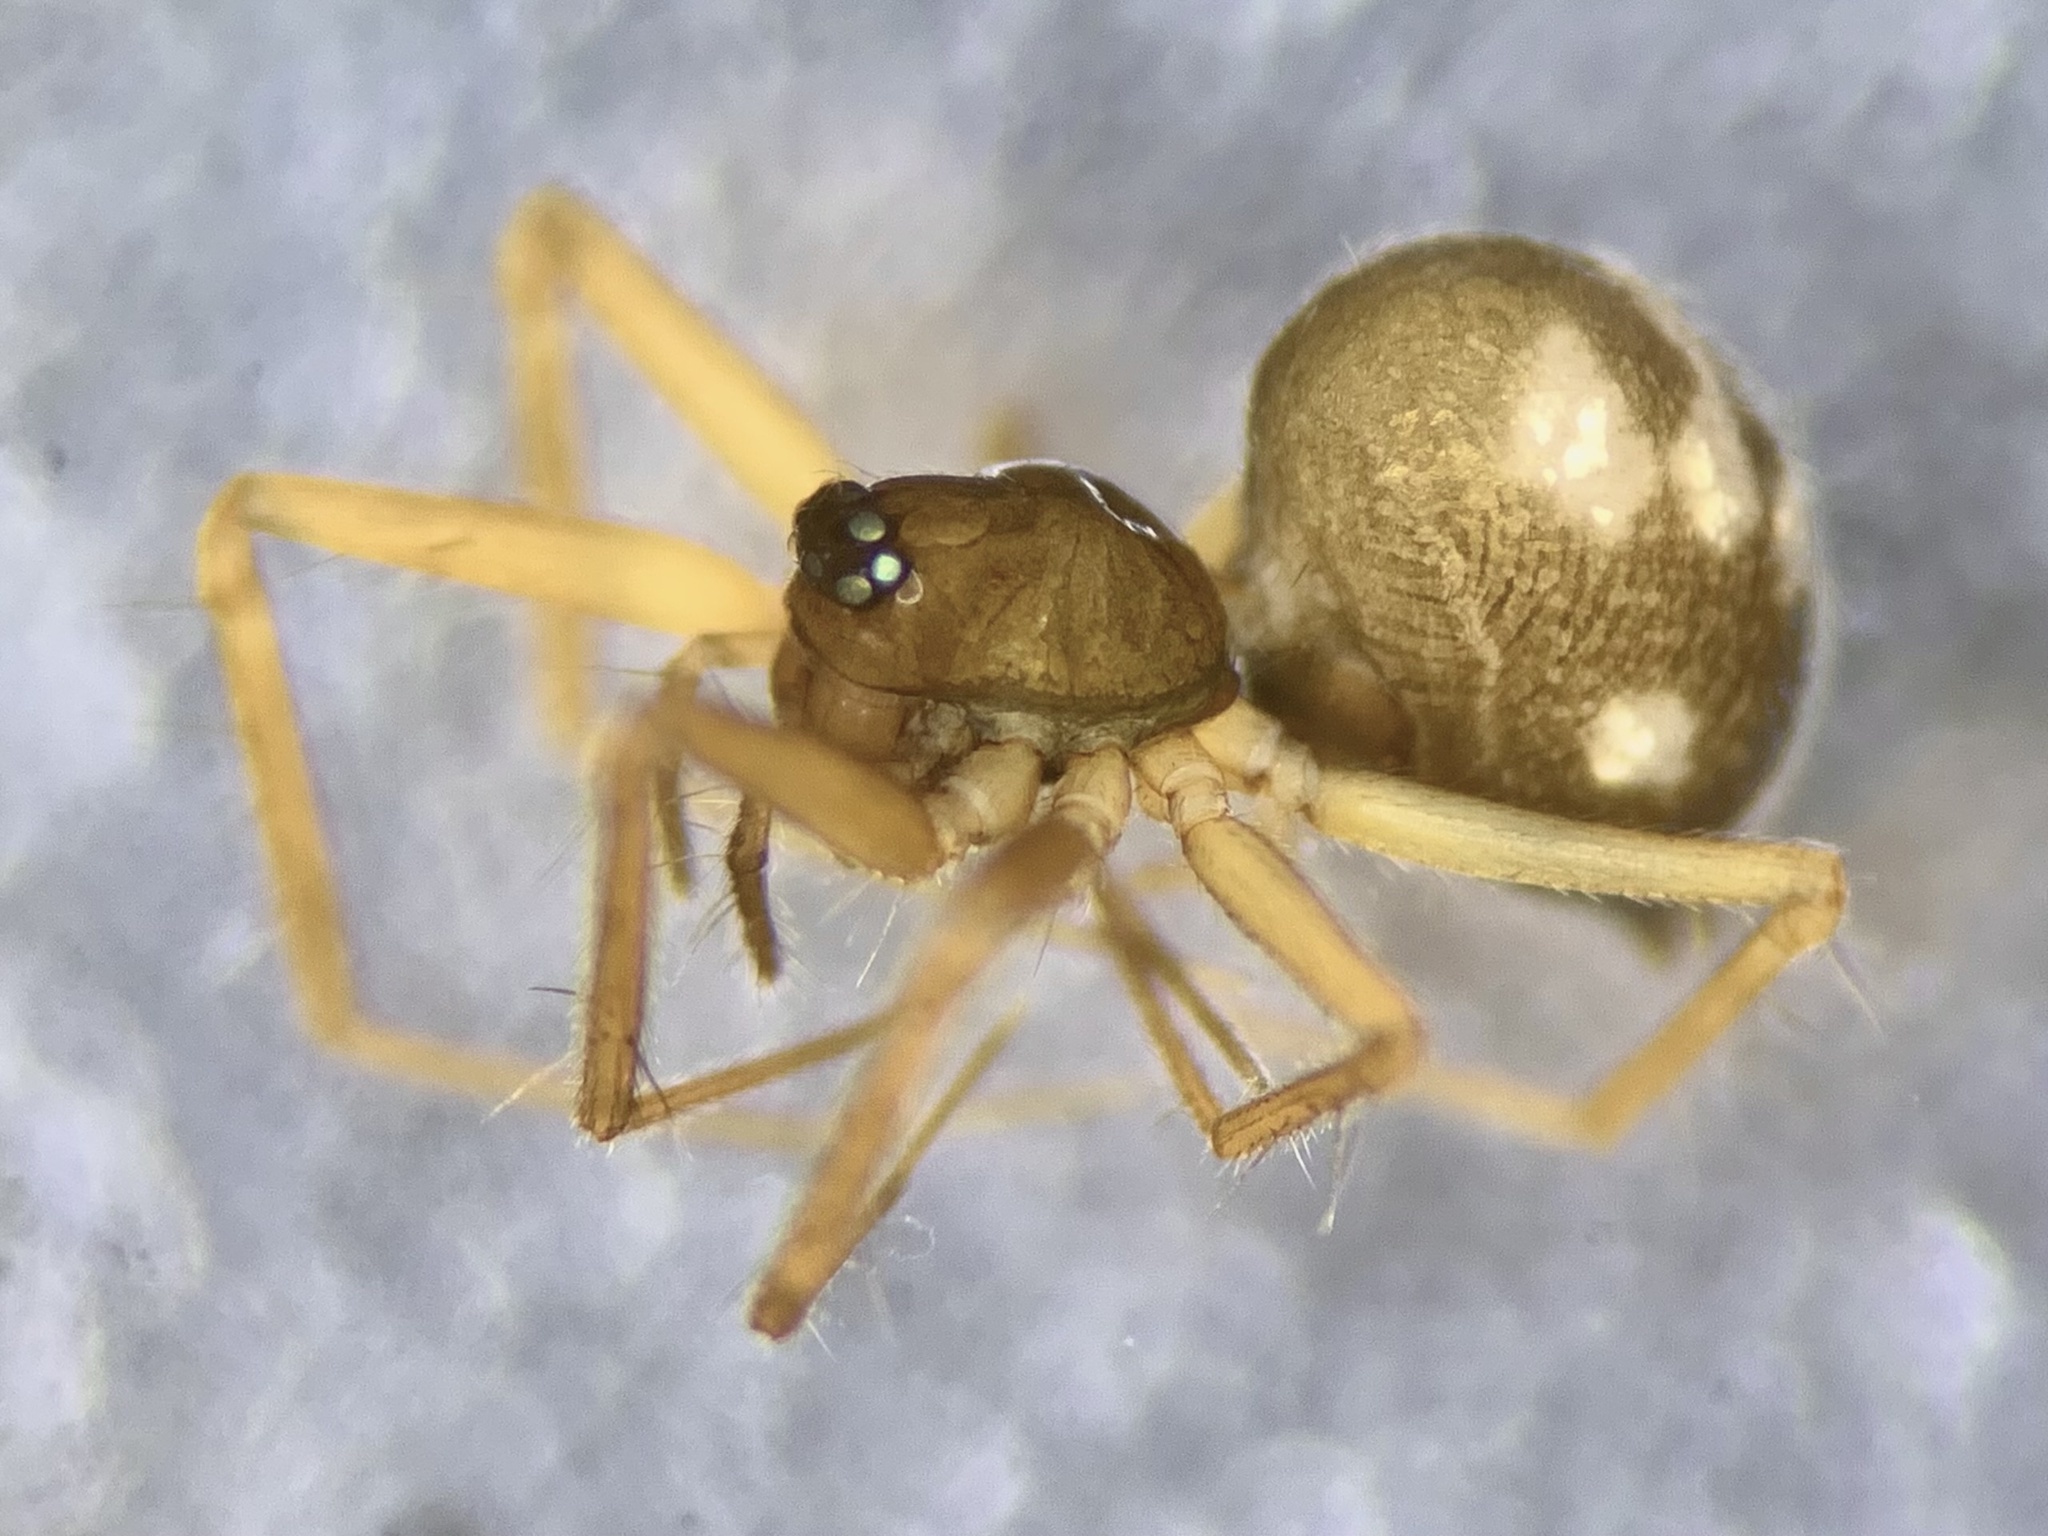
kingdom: Animalia
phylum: Arthropoda
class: Arachnida
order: Araneae
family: Linyphiidae
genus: Tenuiphantes
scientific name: Tenuiphantes flavipes
